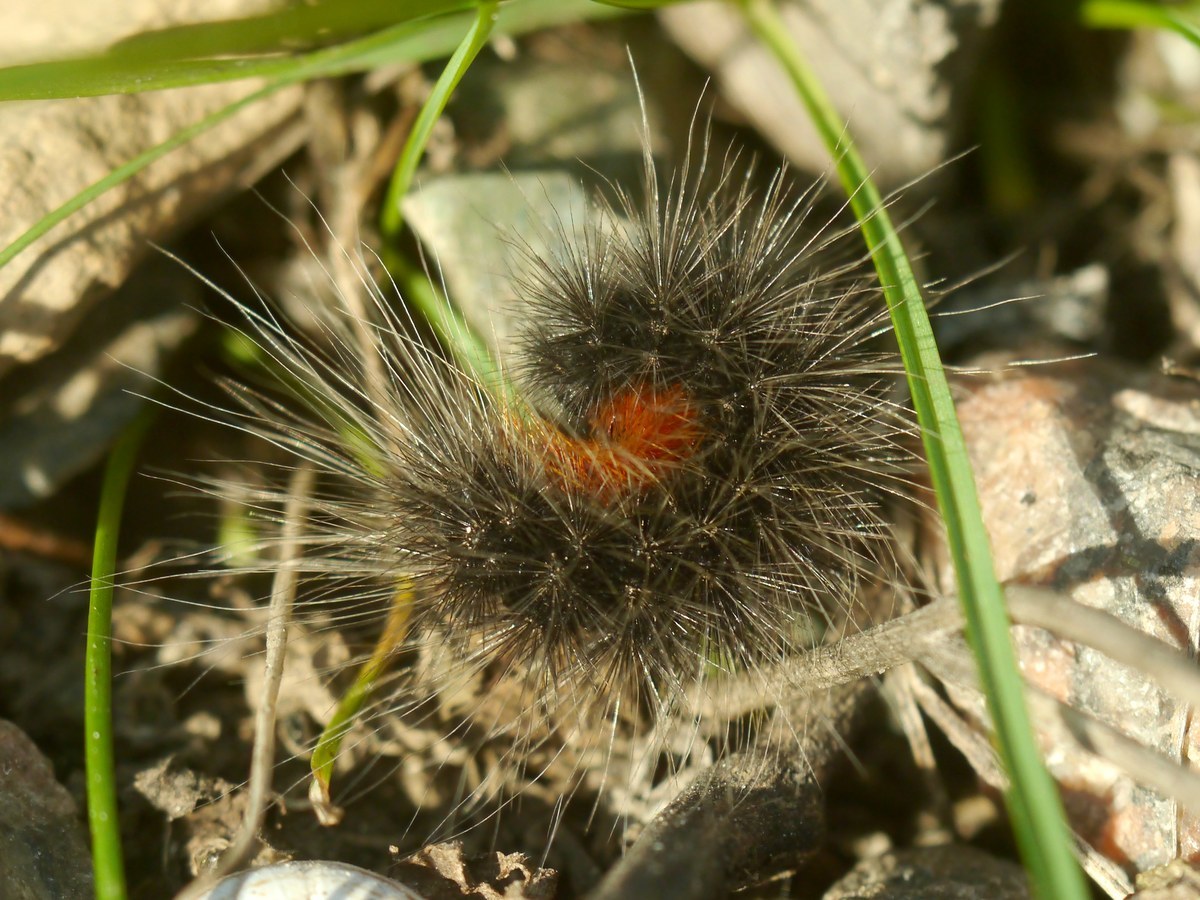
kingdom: Animalia
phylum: Arthropoda
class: Insecta
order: Lepidoptera
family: Erebidae
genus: Eucharia
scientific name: Eucharia festiva
